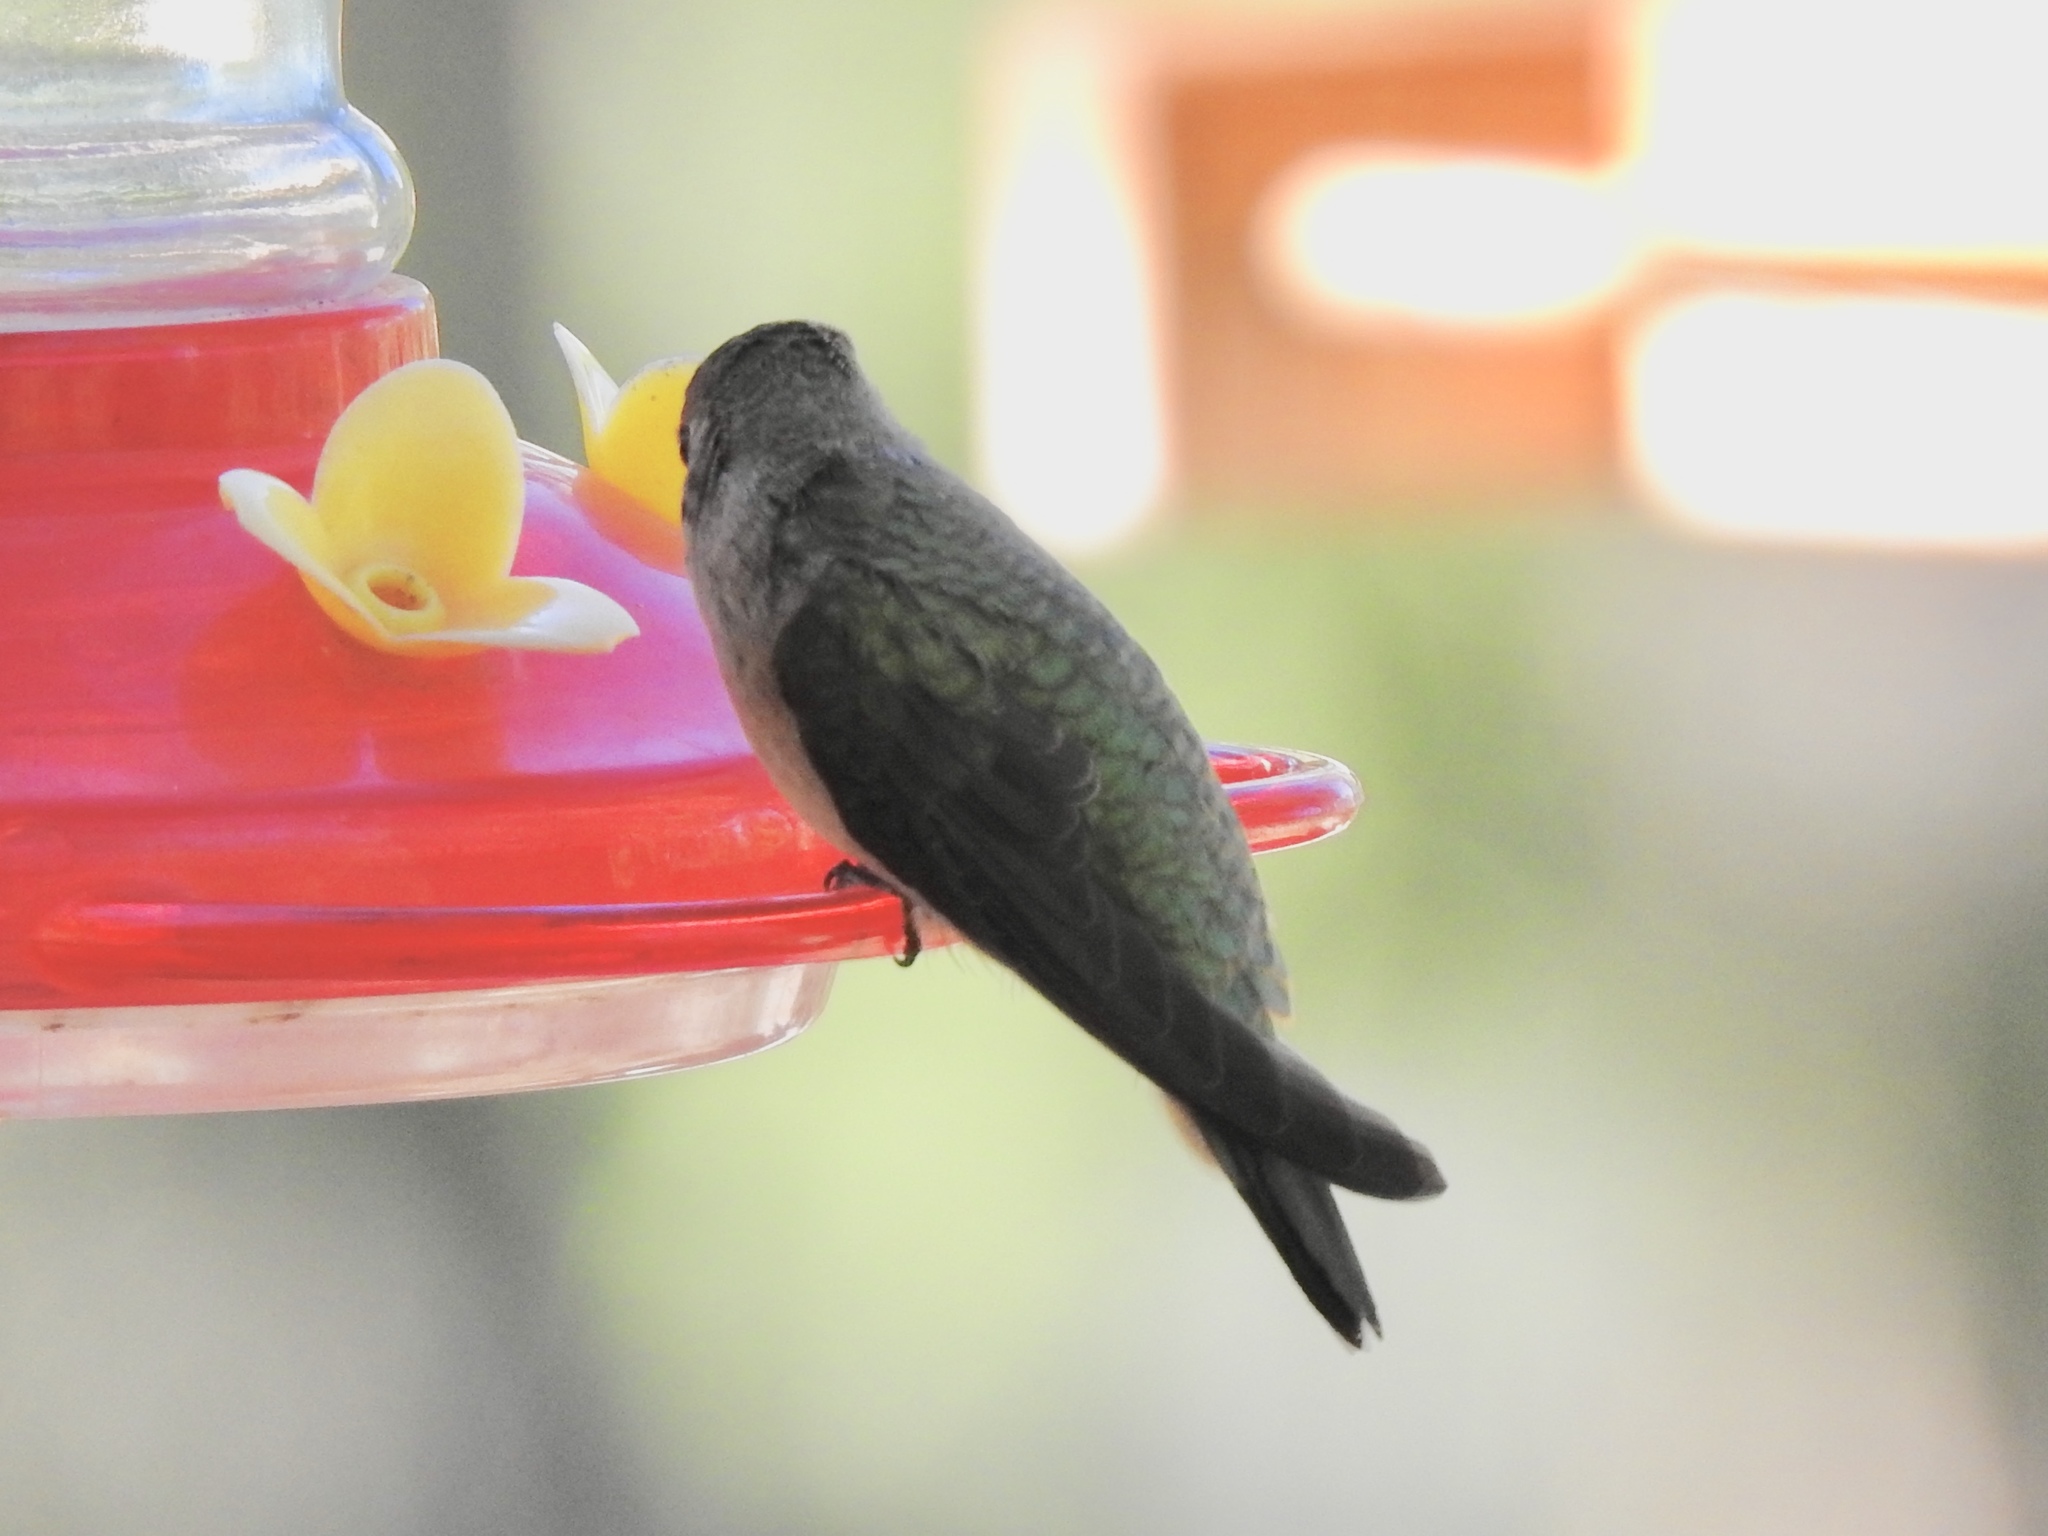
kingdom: Animalia
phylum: Chordata
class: Aves
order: Apodiformes
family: Trochilidae
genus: Archilochus
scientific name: Archilochus alexandri
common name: Black-chinned hummingbird
